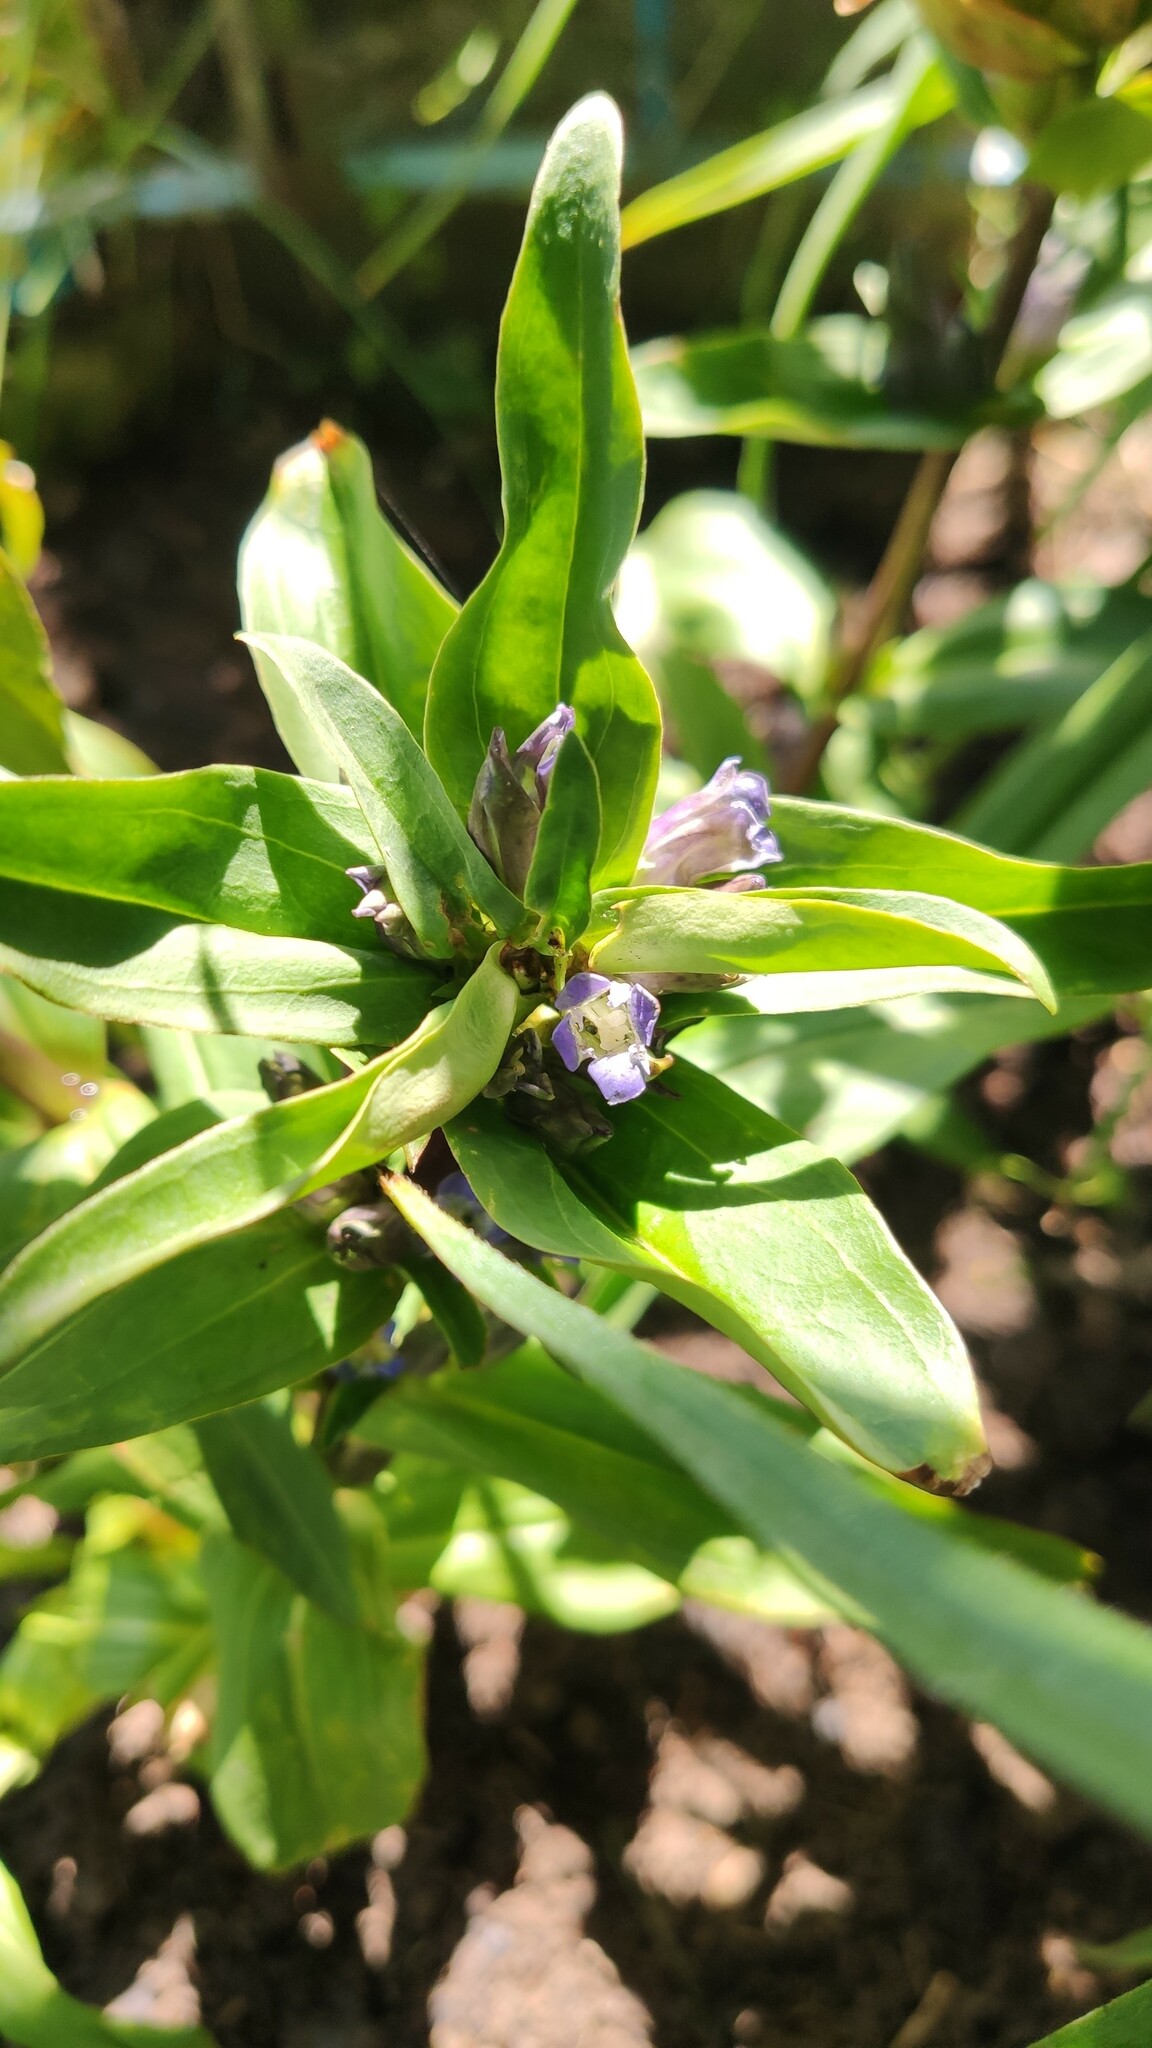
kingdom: Plantae
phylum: Tracheophyta
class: Magnoliopsida
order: Gentianales
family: Gentianaceae
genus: Gentiana
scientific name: Gentiana cruciata
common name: Cross gentian
